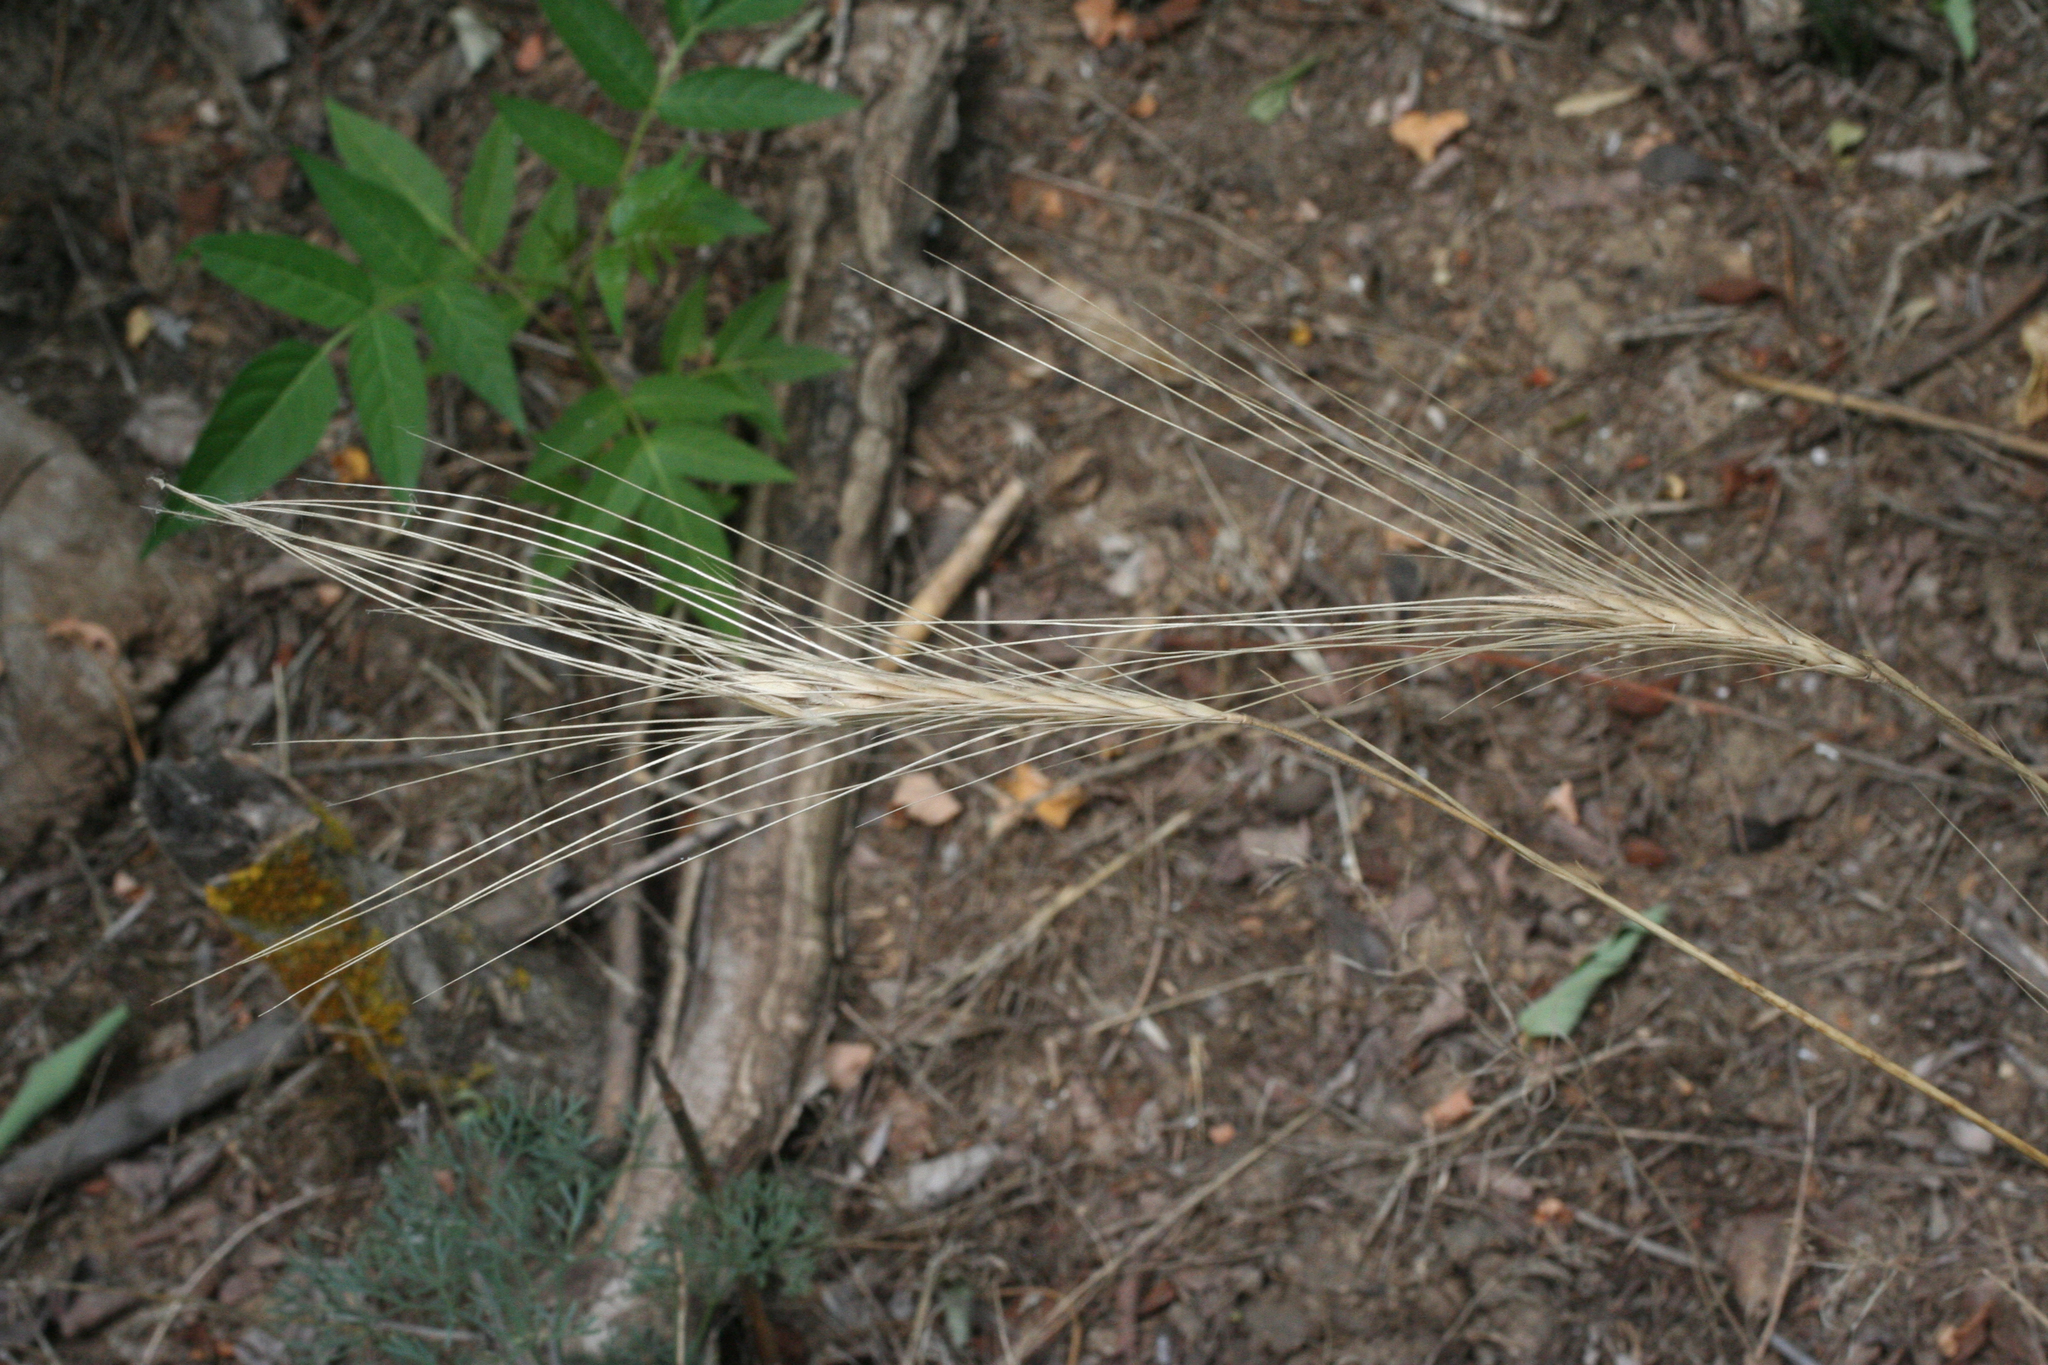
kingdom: Plantae
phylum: Tracheophyta
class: Liliopsida
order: Poales
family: Poaceae
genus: Secale
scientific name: Secale sylvestre
